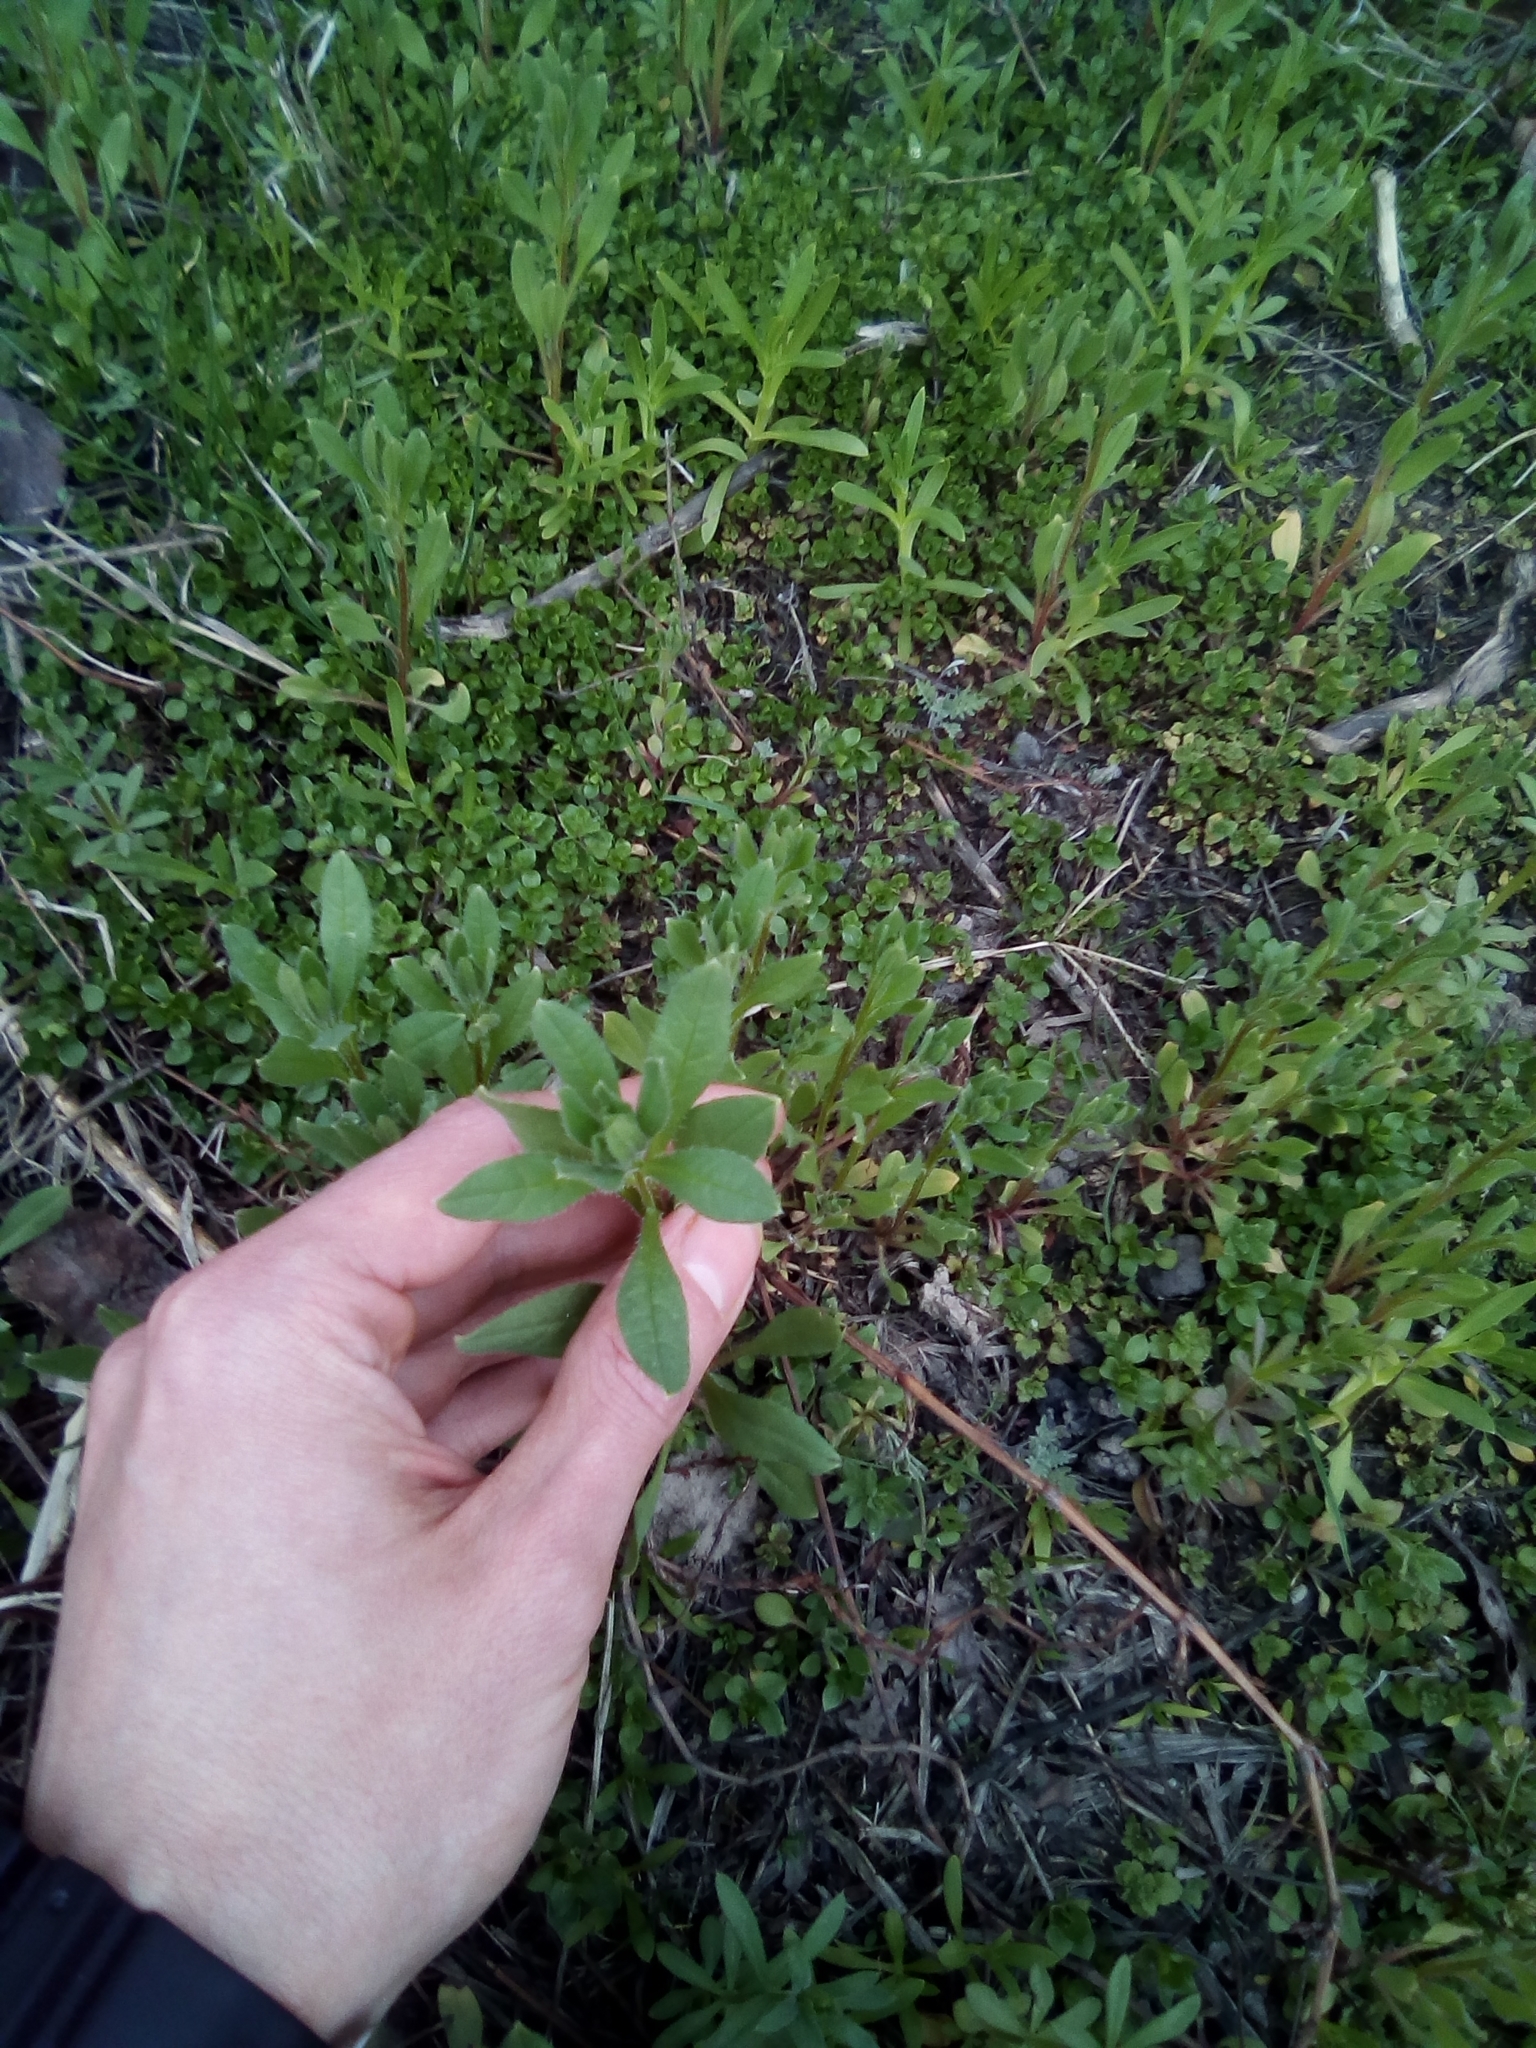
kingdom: Plantae
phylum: Tracheophyta
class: Magnoliopsida
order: Boraginales
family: Boraginaceae
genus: Asperugo
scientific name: Asperugo procumbens
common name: Madwort
